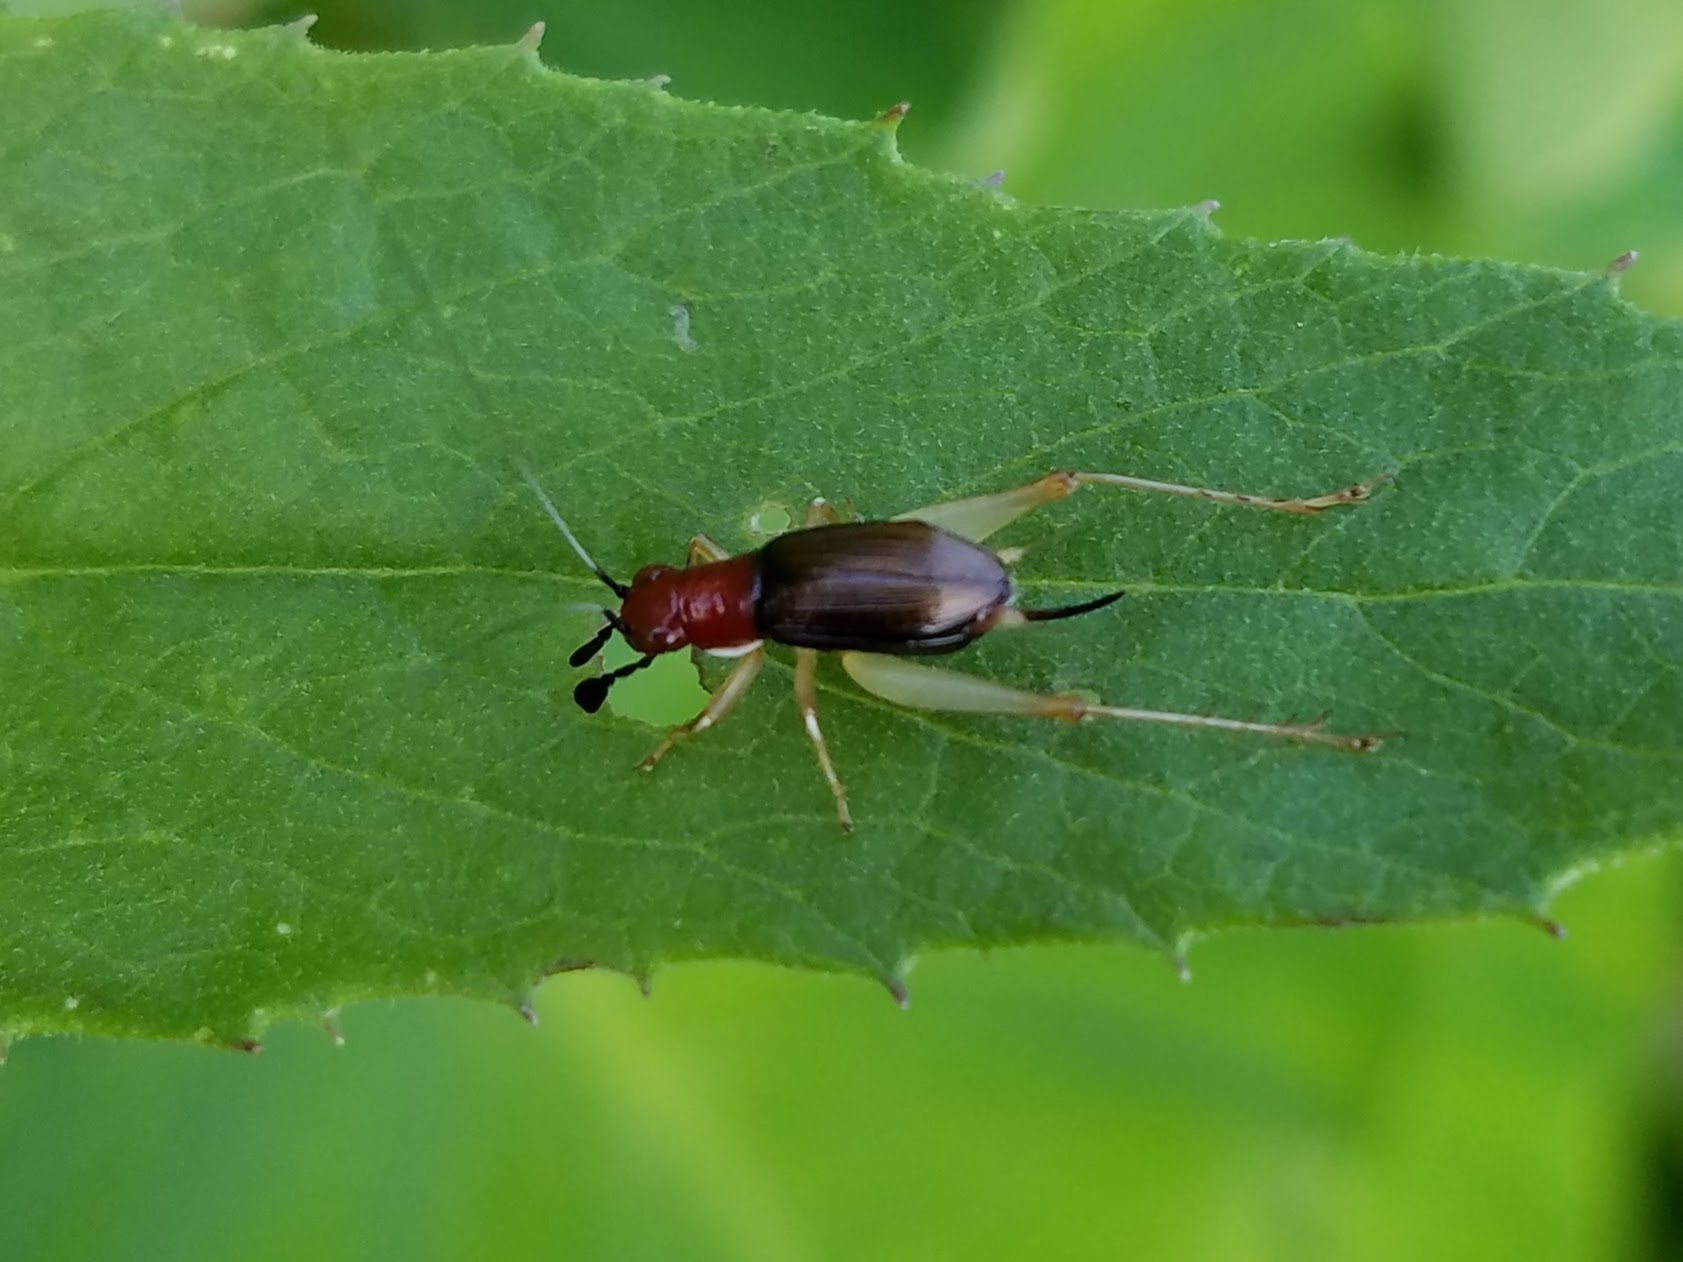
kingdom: Animalia
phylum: Arthropoda
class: Insecta
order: Orthoptera
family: Trigonidiidae
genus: Phyllopalpus
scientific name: Phyllopalpus pulchellus
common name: Handsome trig
